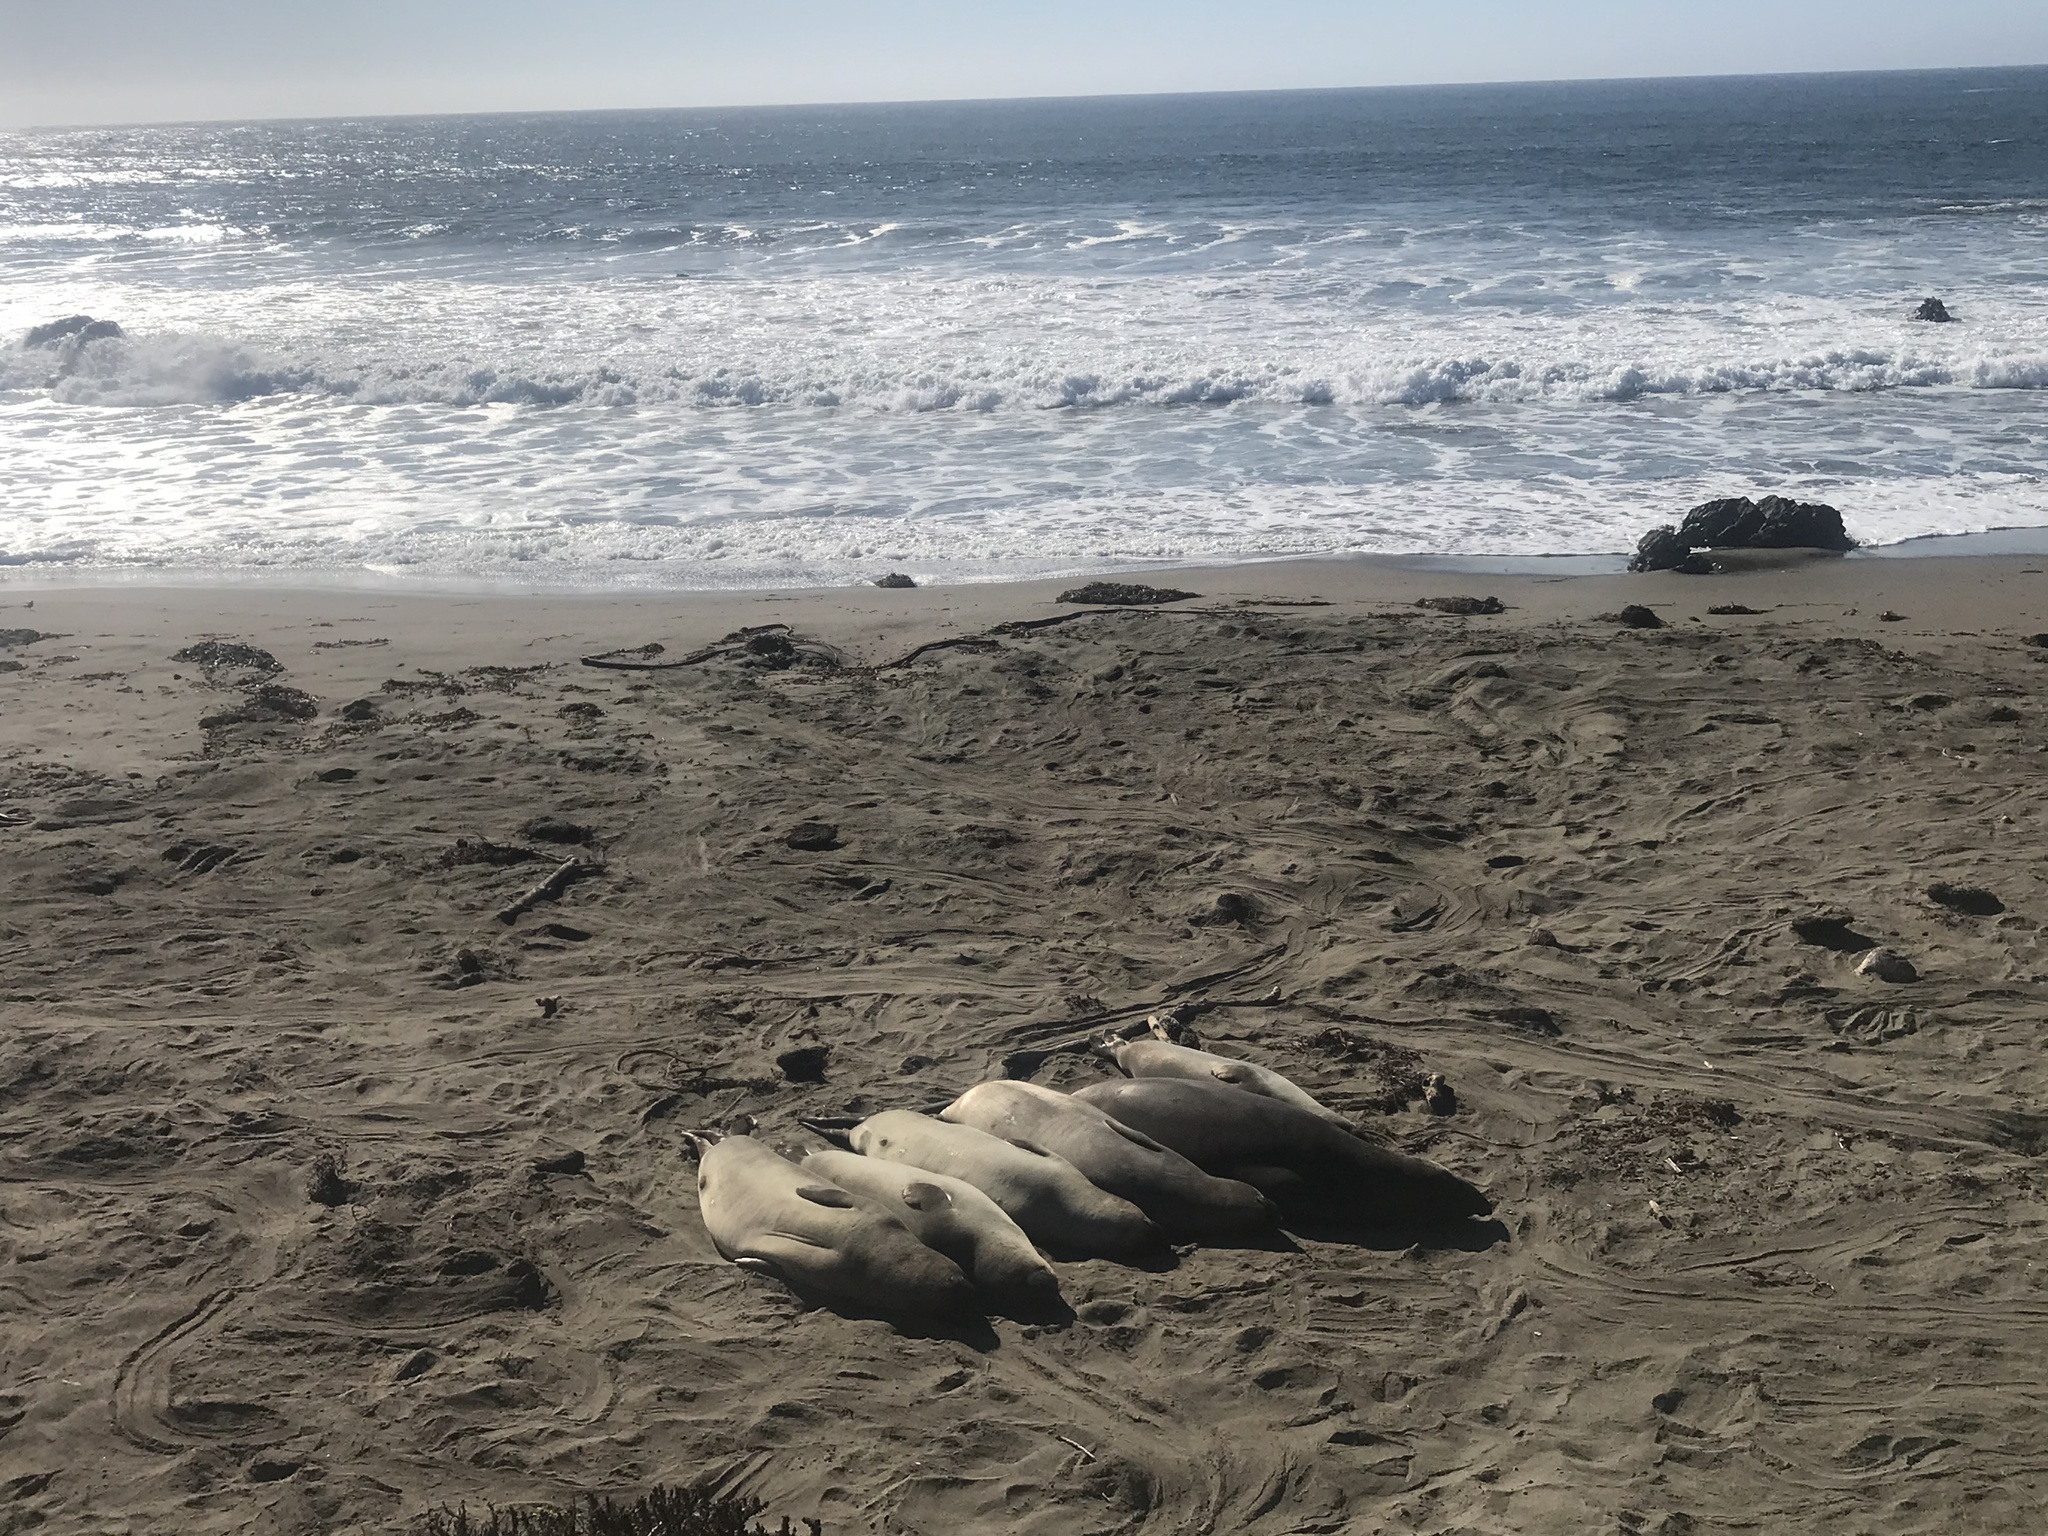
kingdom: Animalia
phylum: Chordata
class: Mammalia
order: Carnivora
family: Phocidae
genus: Mirounga
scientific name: Mirounga angustirostris
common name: Northern elephant seal
